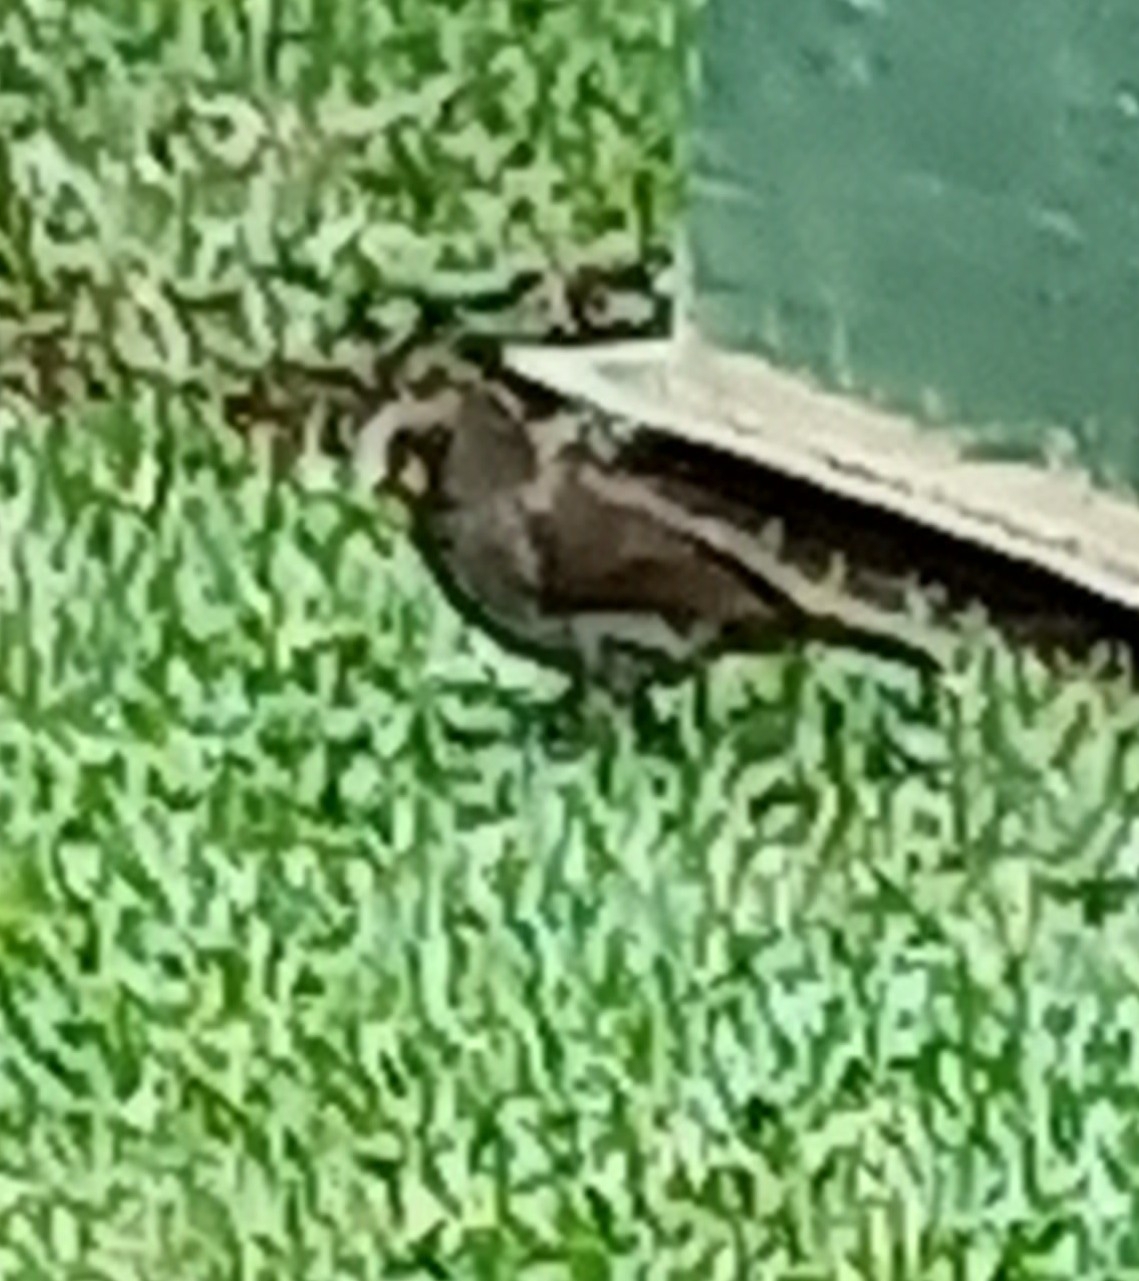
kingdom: Animalia
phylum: Chordata
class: Aves
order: Passeriformes
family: Ploceidae
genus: Amblyospiza
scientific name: Amblyospiza albifrons
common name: Thick-billed weaver
